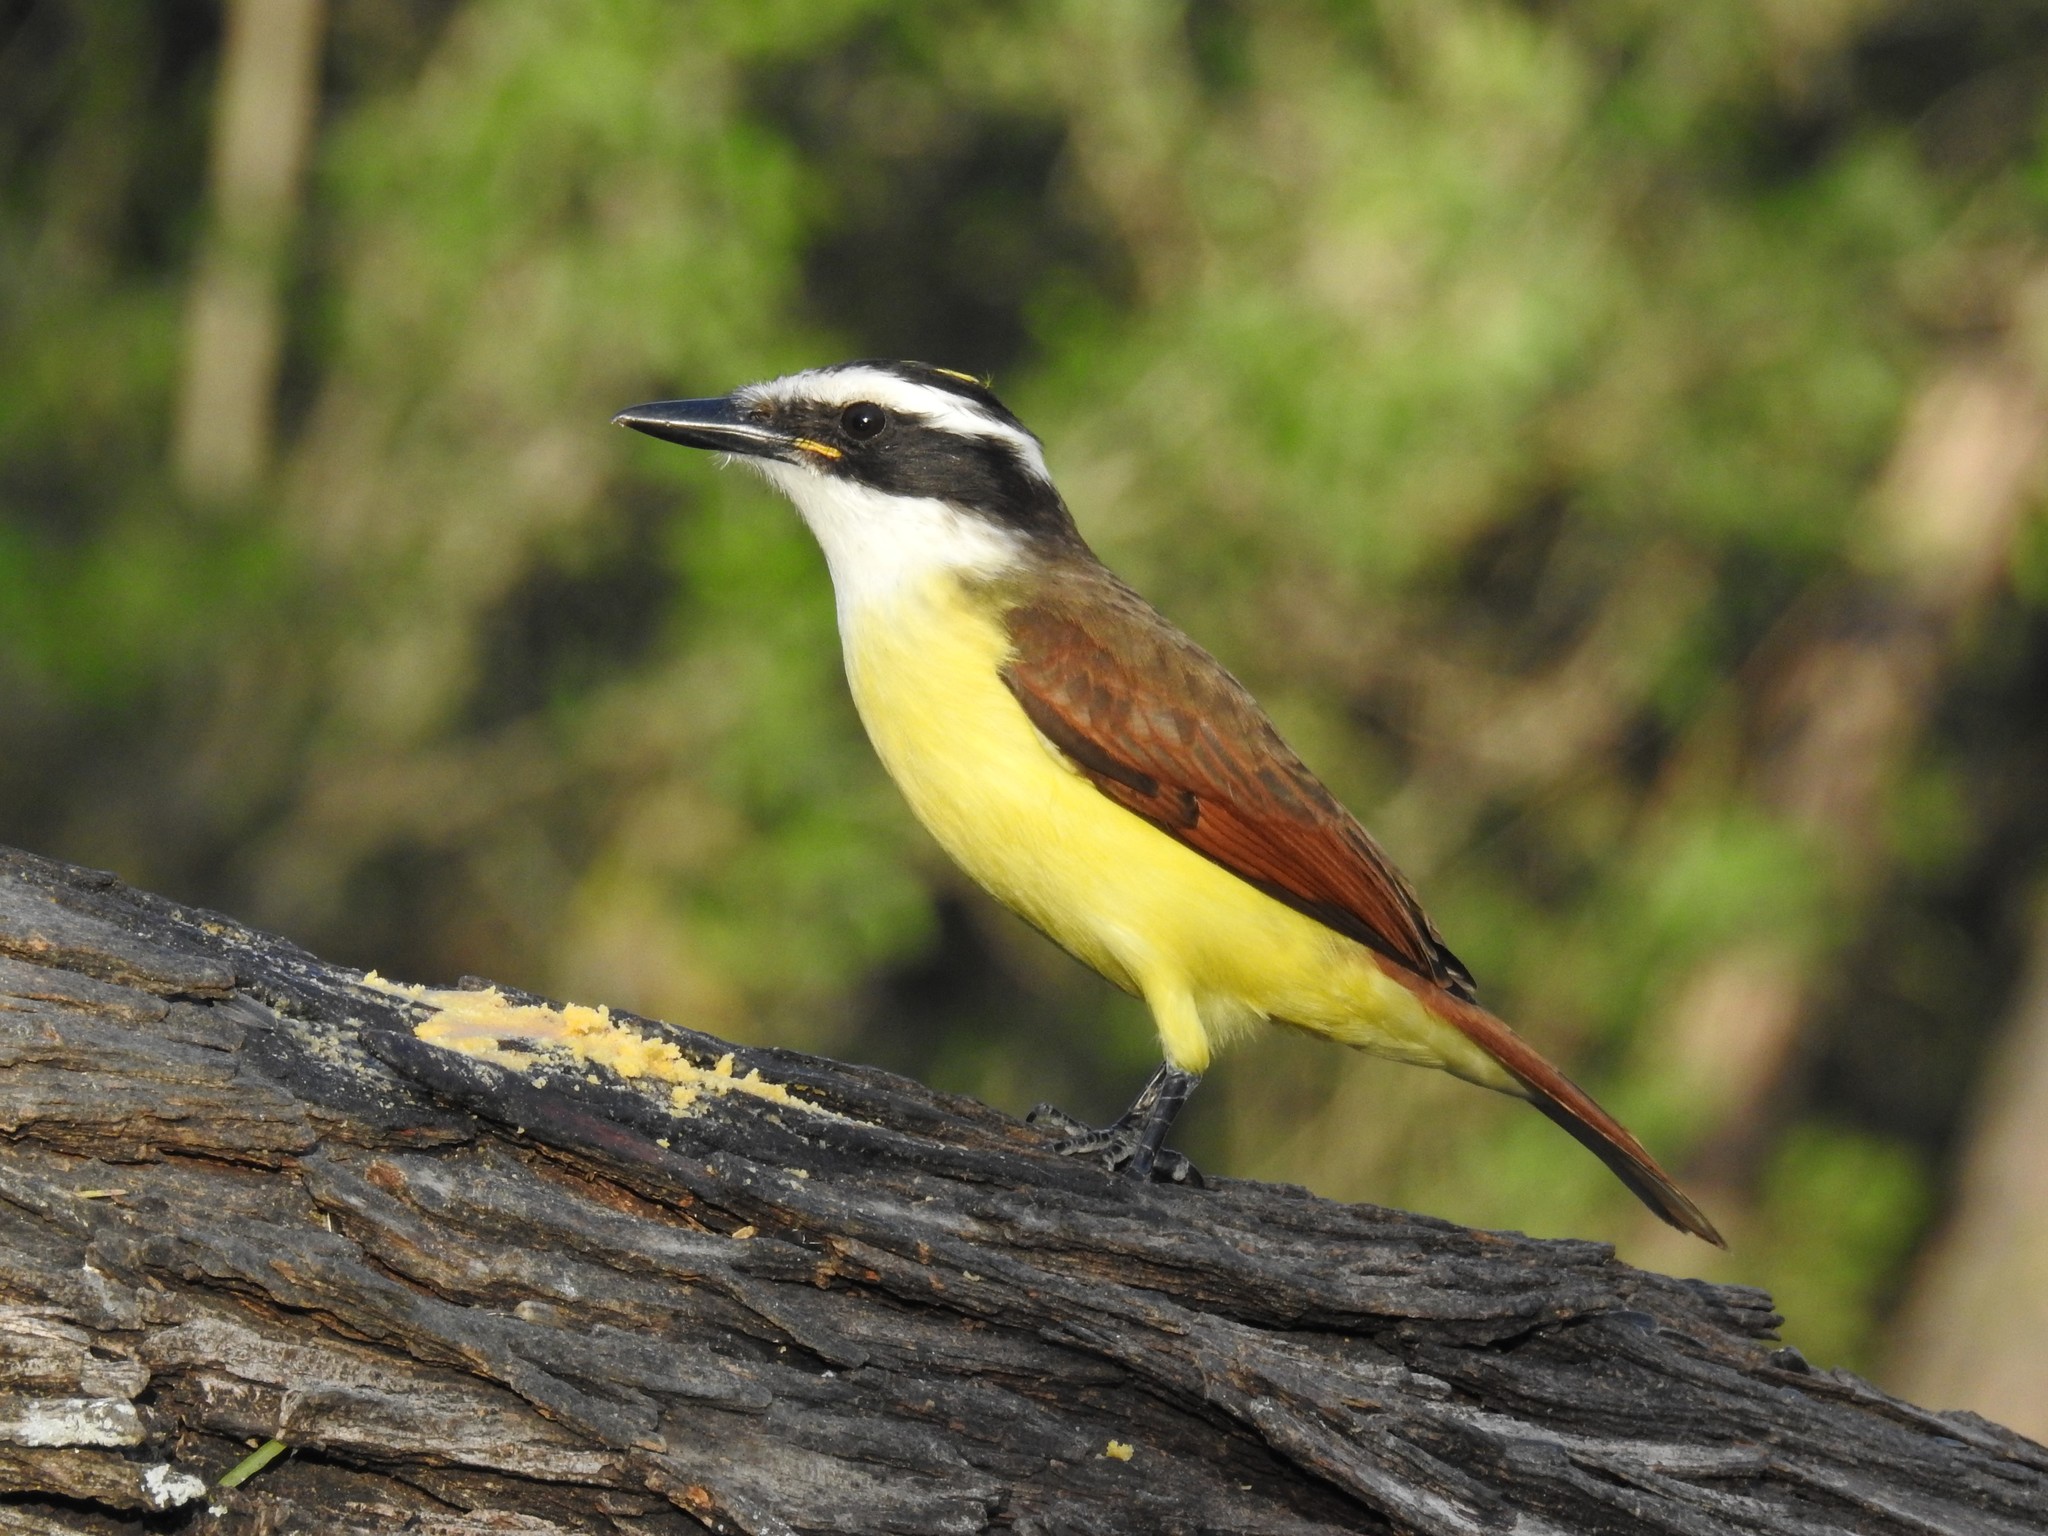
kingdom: Animalia
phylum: Chordata
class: Aves
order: Passeriformes
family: Tyrannidae
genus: Pitangus
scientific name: Pitangus sulphuratus
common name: Great kiskadee
